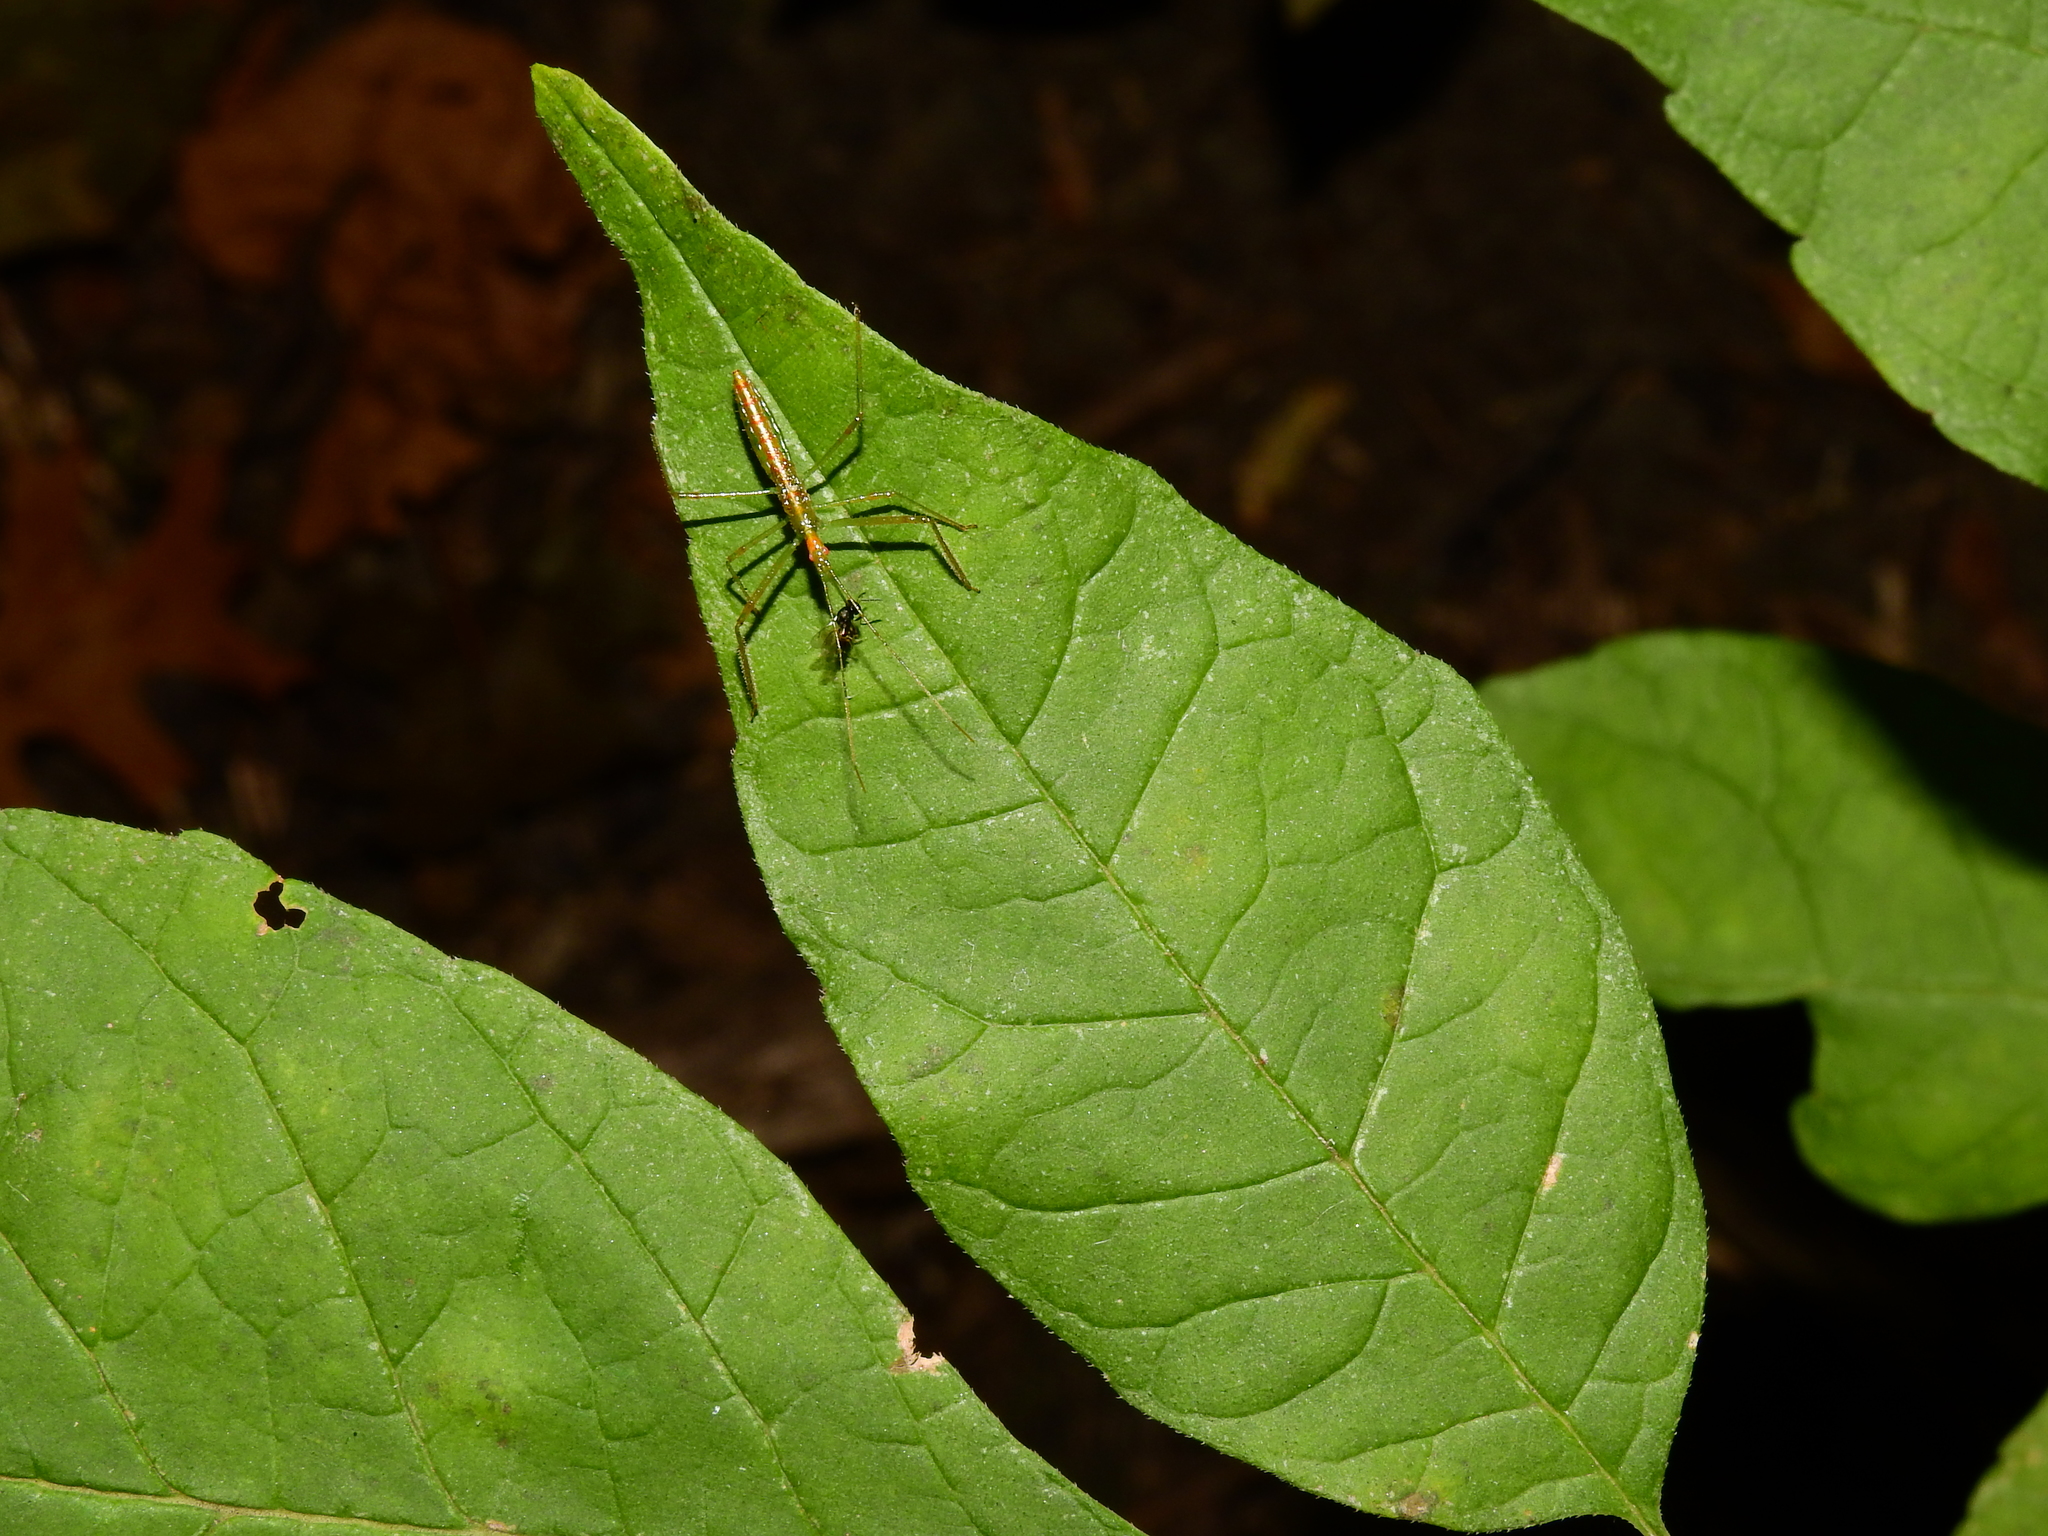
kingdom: Animalia
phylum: Arthropoda
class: Insecta
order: Hemiptera
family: Reduviidae
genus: Zelus
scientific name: Zelus luridus
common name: Pale green assassin bug
